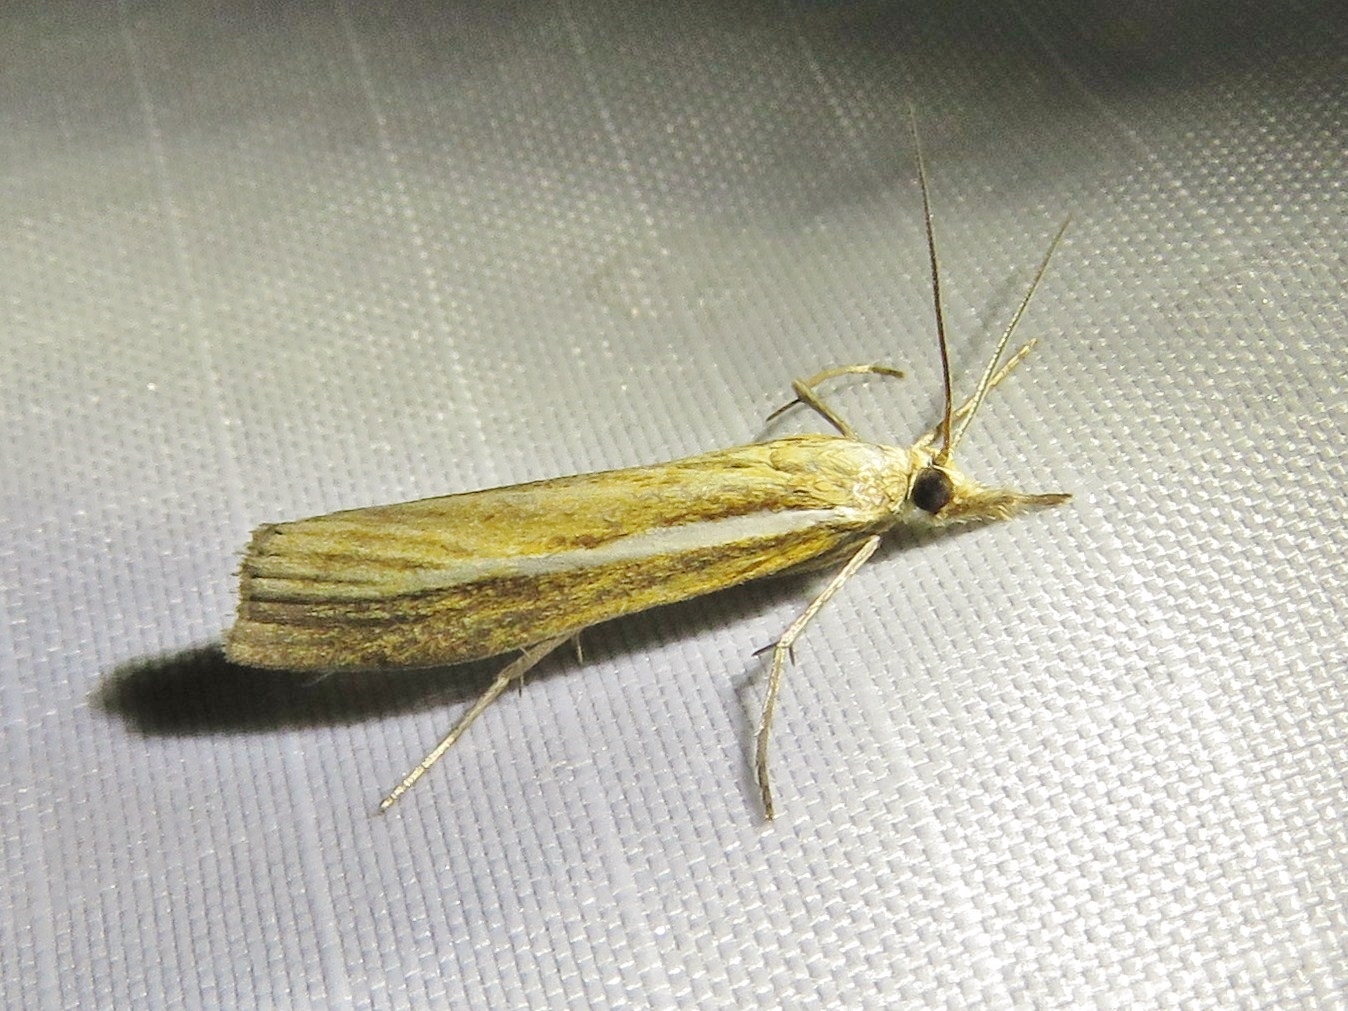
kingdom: Animalia
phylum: Arthropoda
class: Insecta
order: Lepidoptera
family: Crambidae
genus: Agriphila
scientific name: Agriphila tristellus
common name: Common grass-veneer
